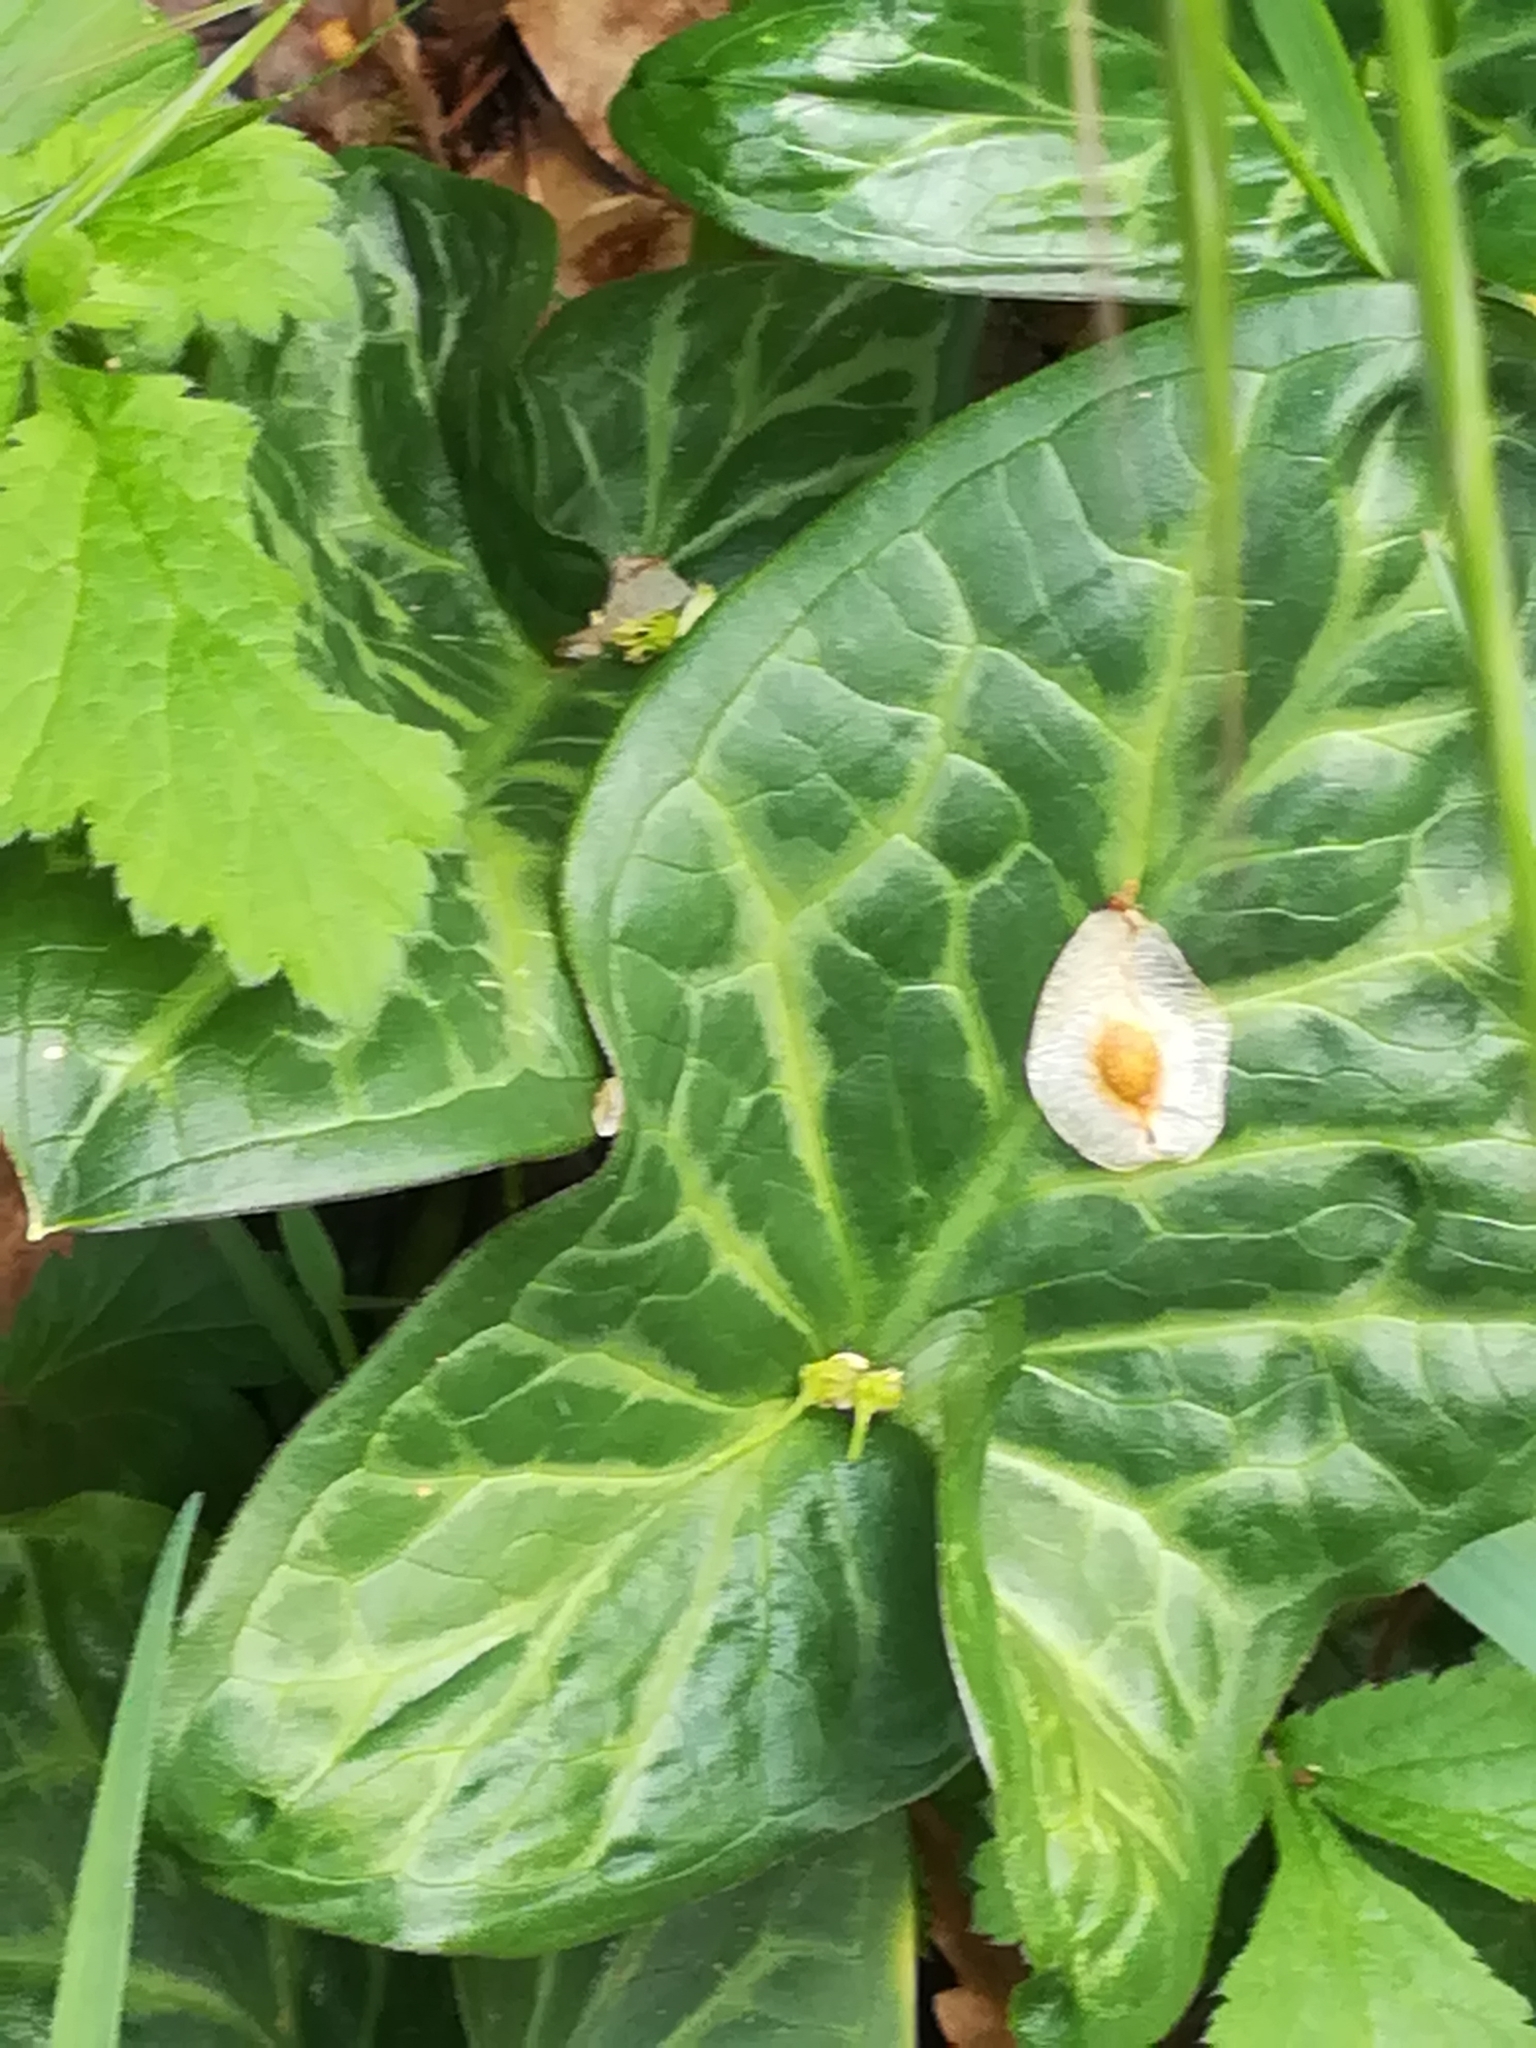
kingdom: Plantae
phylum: Tracheophyta
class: Liliopsida
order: Alismatales
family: Araceae
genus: Arum
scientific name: Arum italicum
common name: Italian lords-and-ladies
